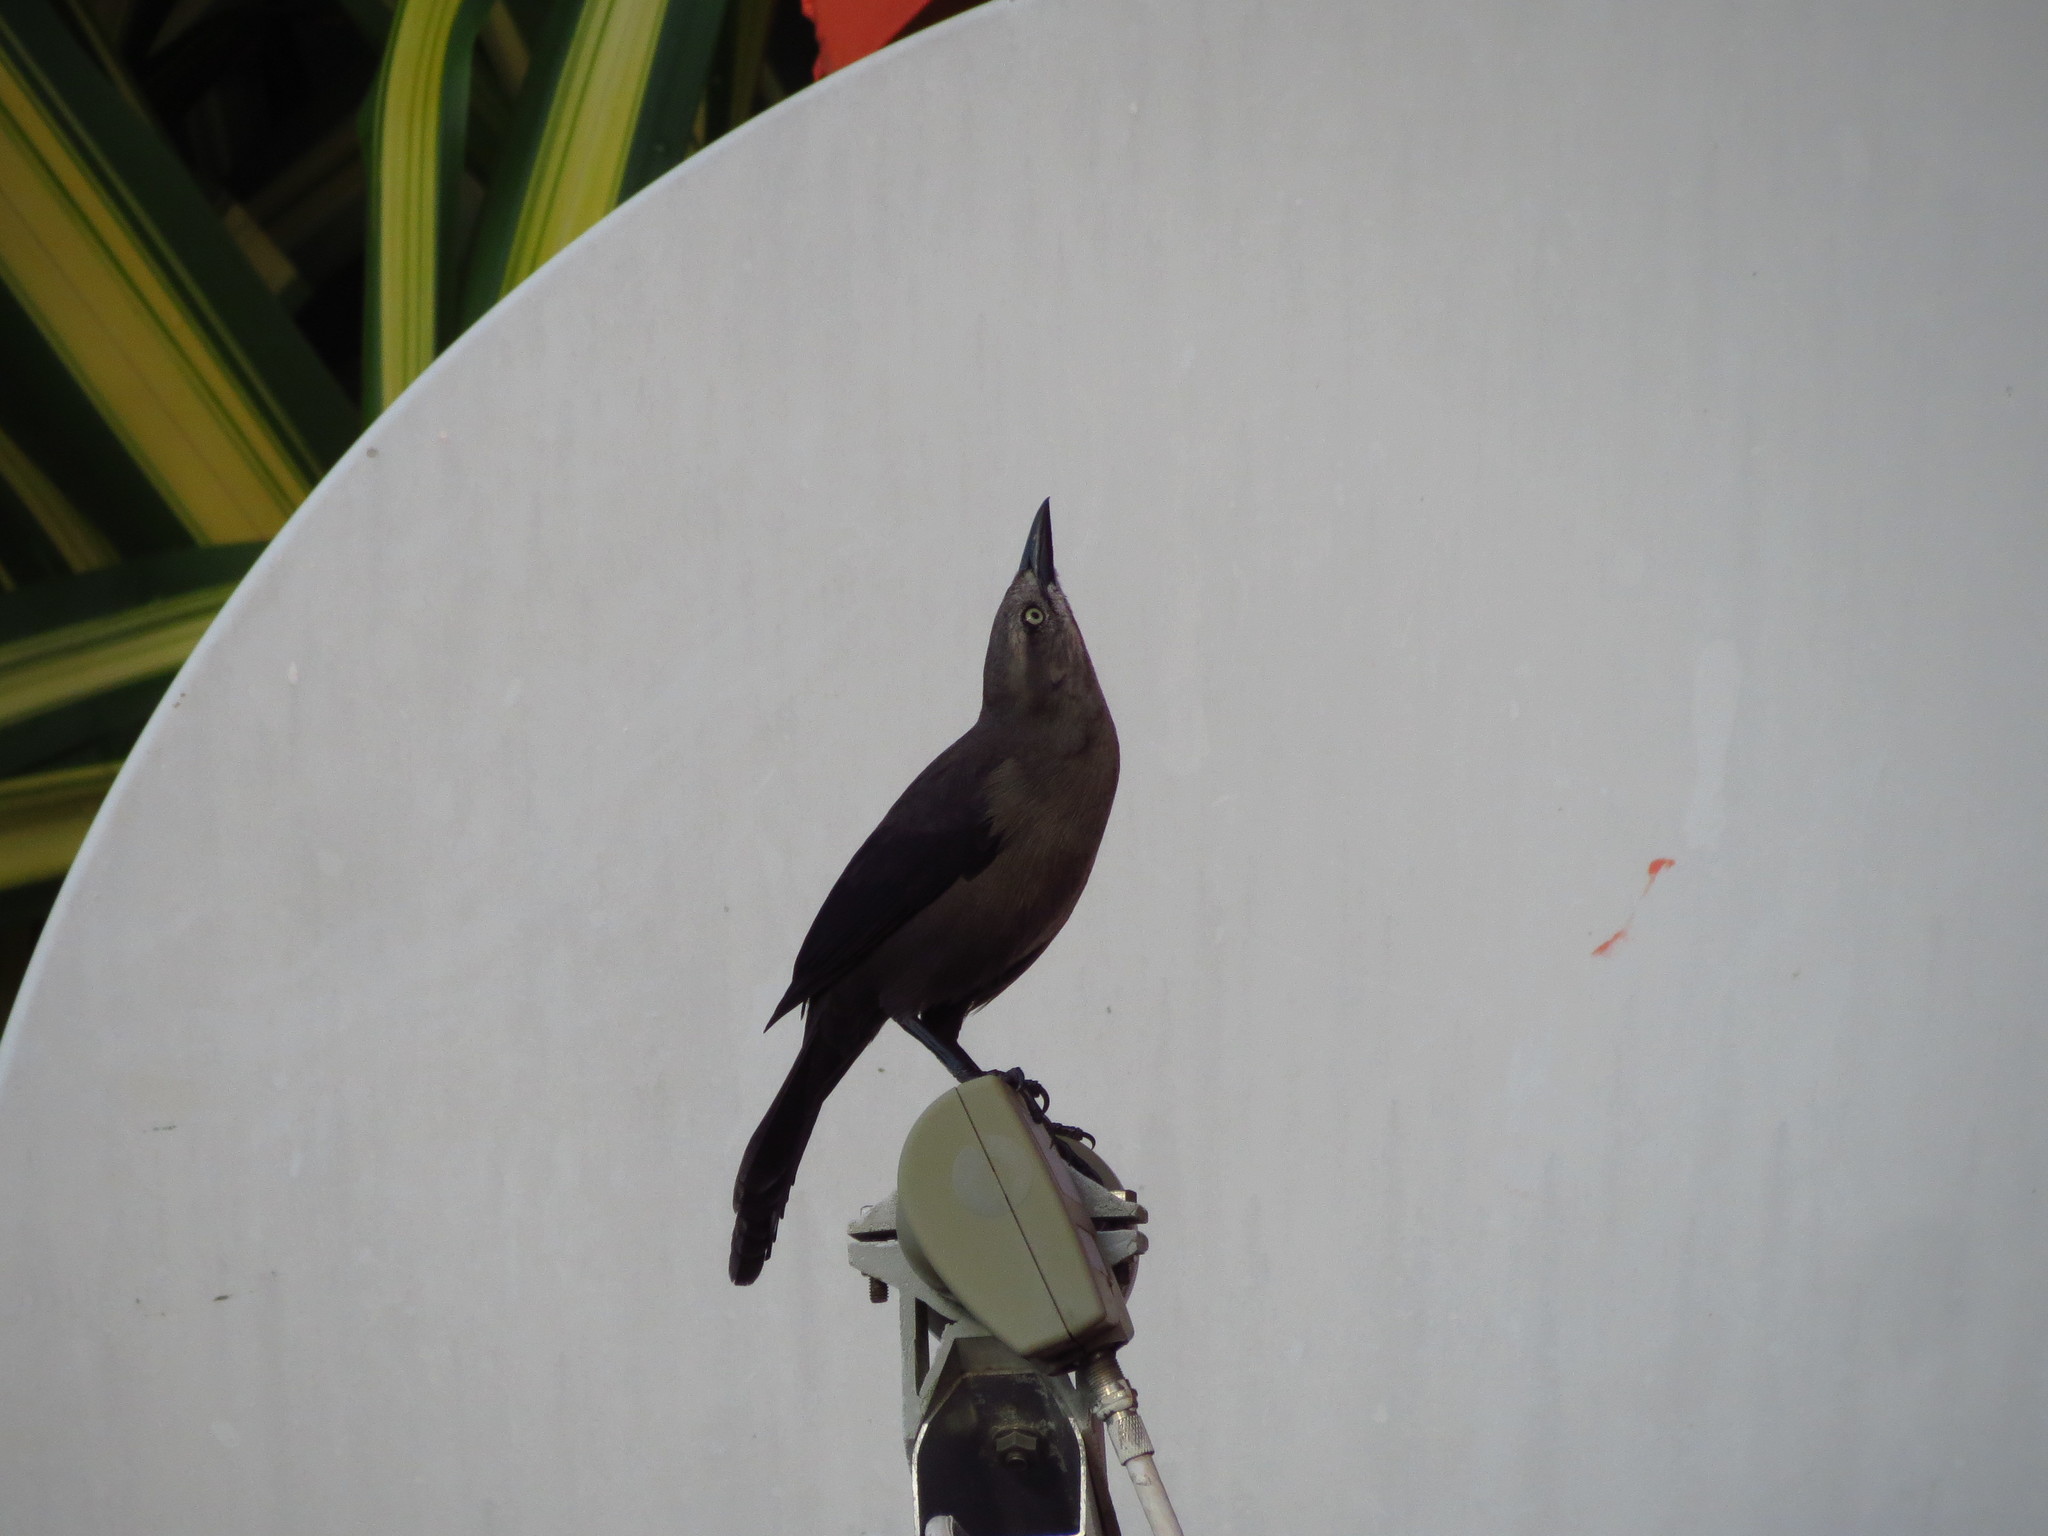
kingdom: Animalia
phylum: Chordata
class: Aves
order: Passeriformes
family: Icteridae
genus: Quiscalus
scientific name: Quiscalus lugubris
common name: Carib grackle
